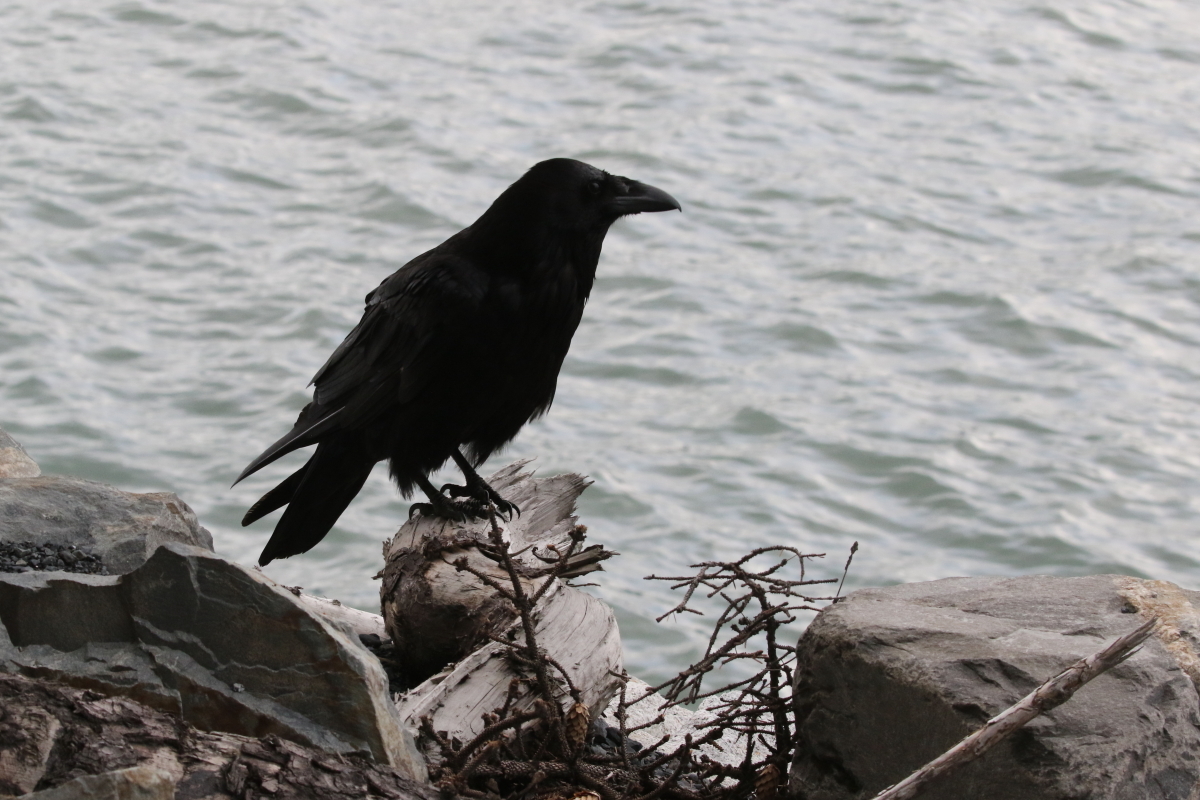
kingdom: Animalia
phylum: Chordata
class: Aves
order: Passeriformes
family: Corvidae
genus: Corvus
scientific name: Corvus corax
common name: Common raven
